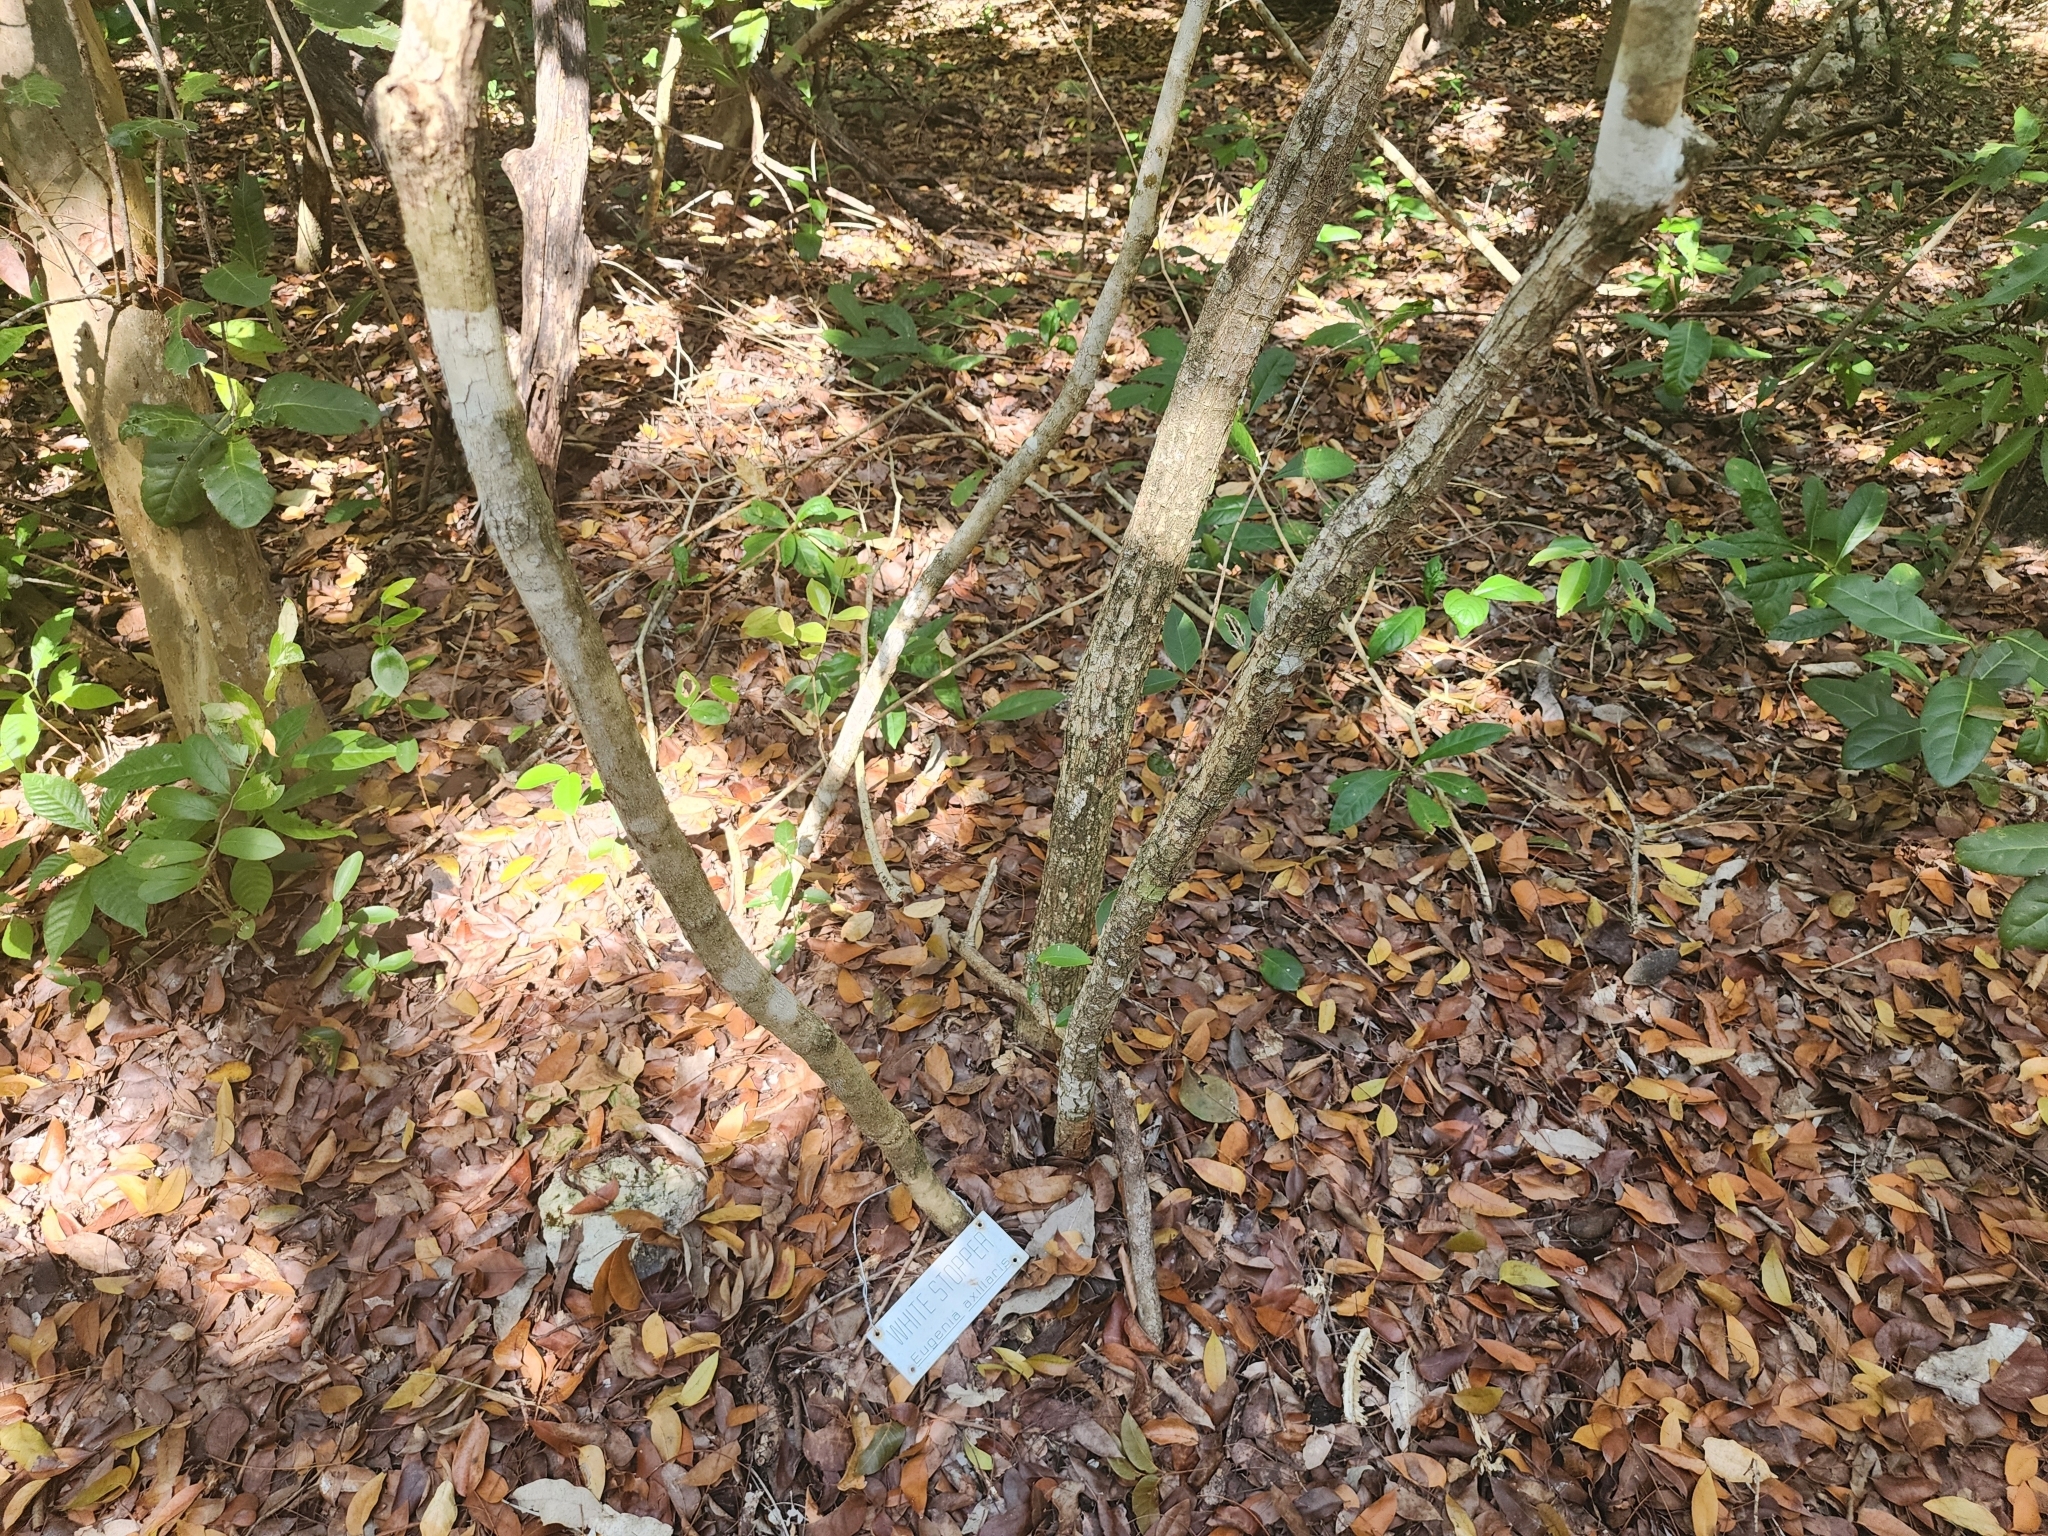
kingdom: Plantae
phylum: Tracheophyta
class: Magnoliopsida
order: Myrtales
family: Myrtaceae
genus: Eugenia
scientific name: Eugenia axillaris
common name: Choaky berry
